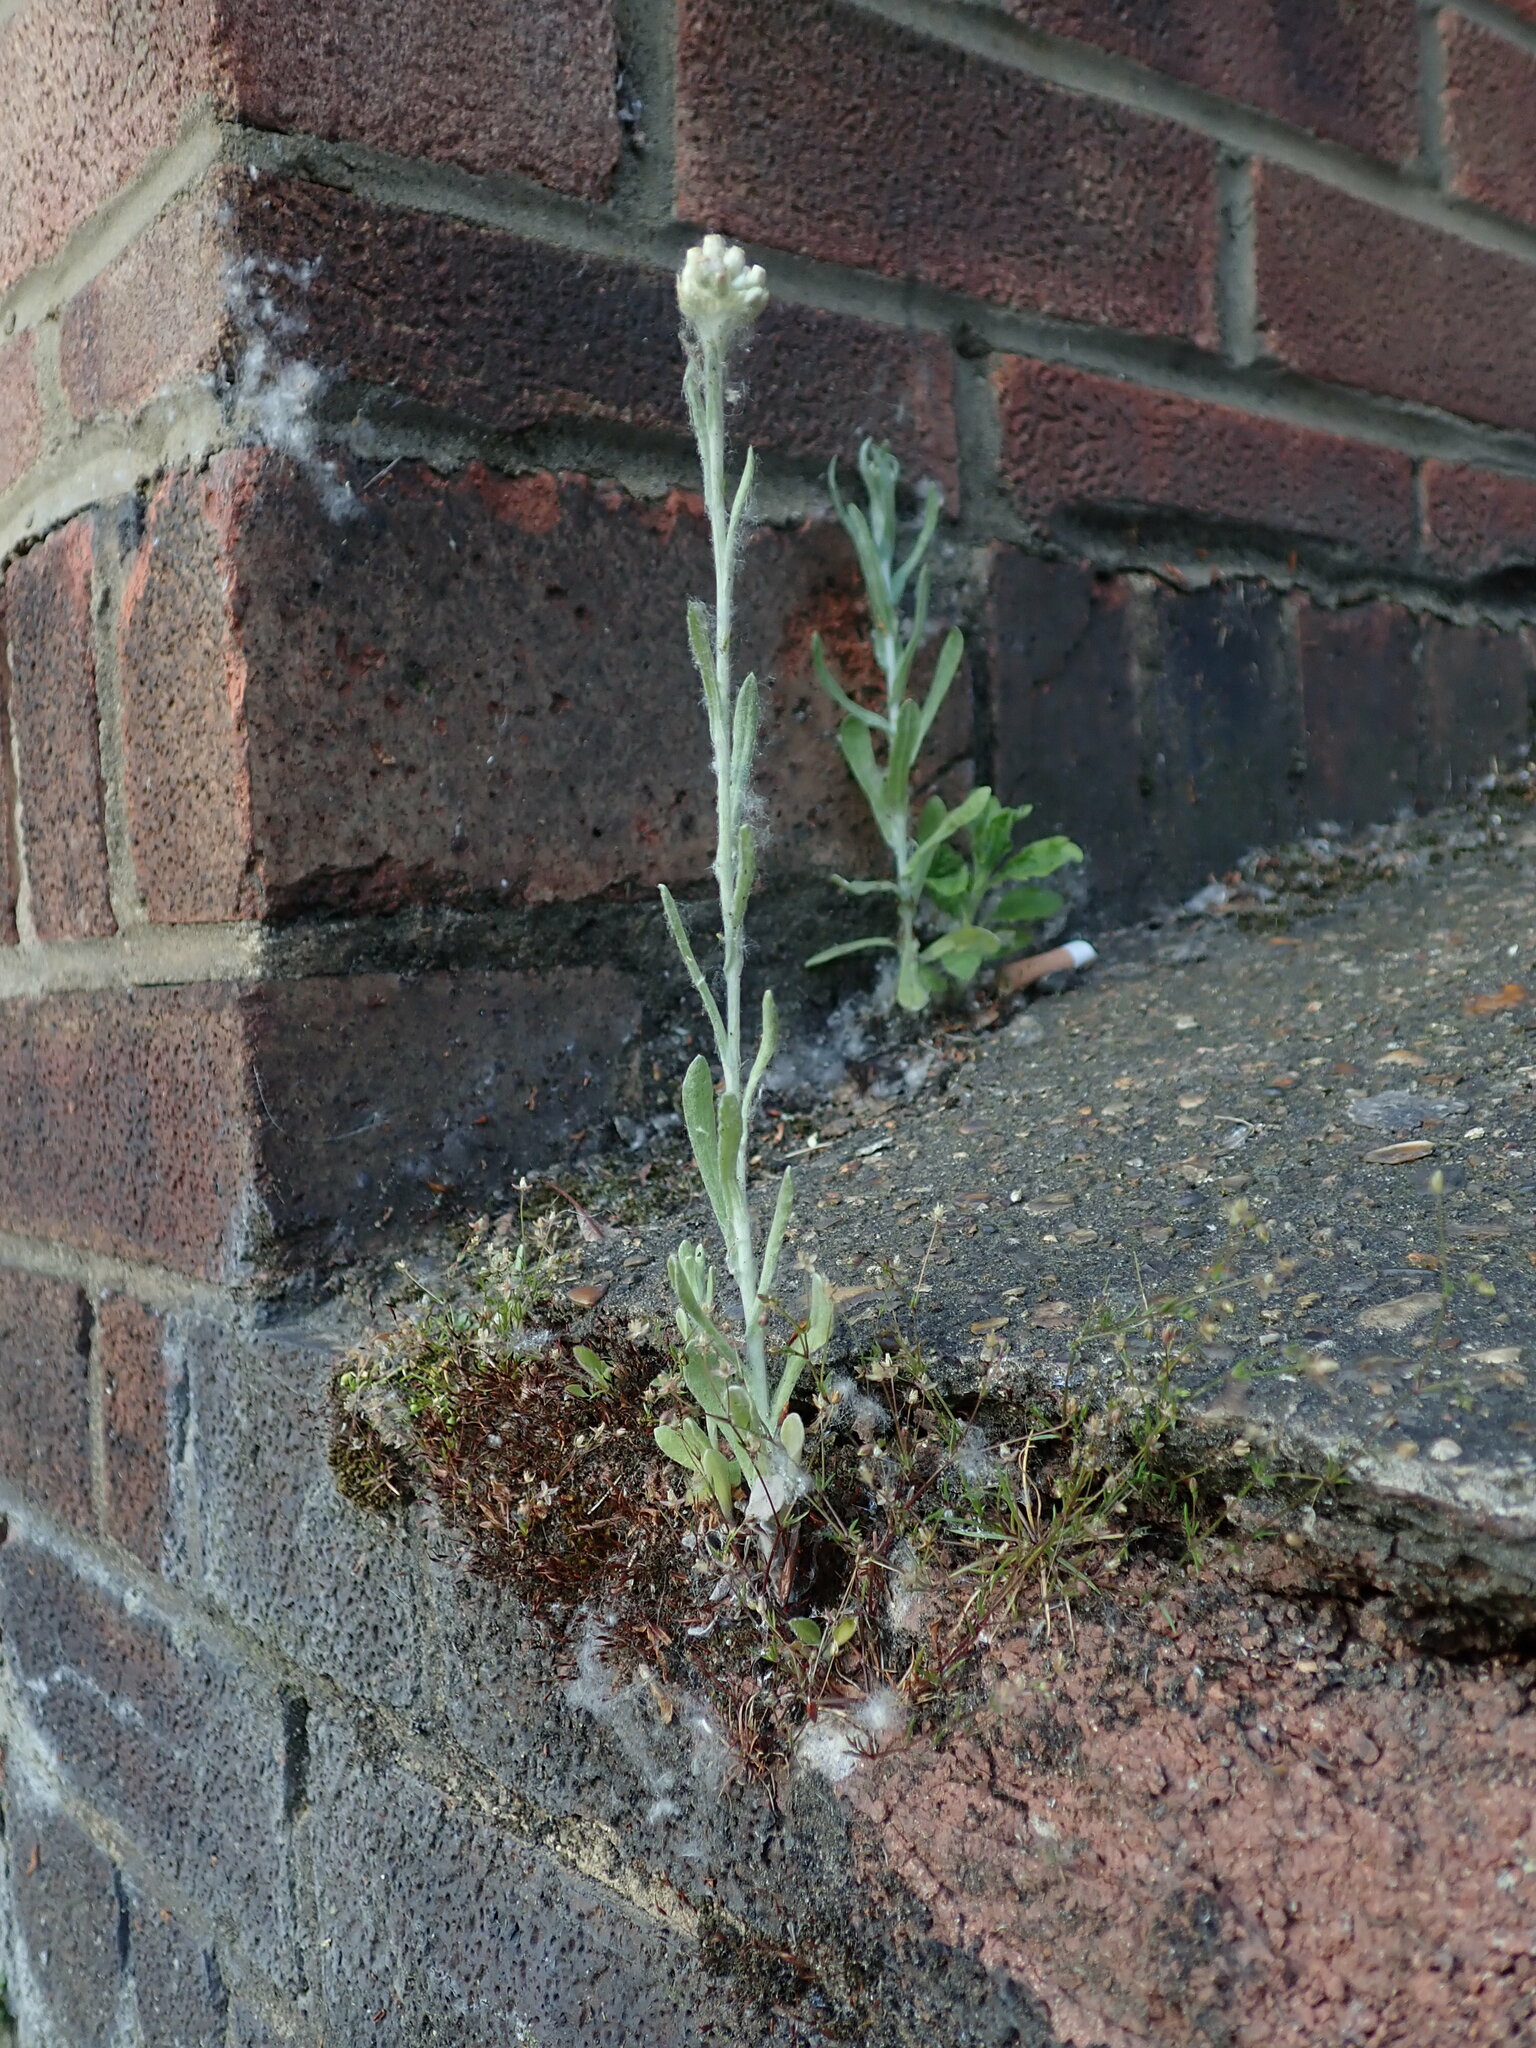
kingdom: Plantae
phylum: Tracheophyta
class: Magnoliopsida
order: Asterales
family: Asteraceae
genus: Helichrysum
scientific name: Helichrysum luteoalbum
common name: Daisy
